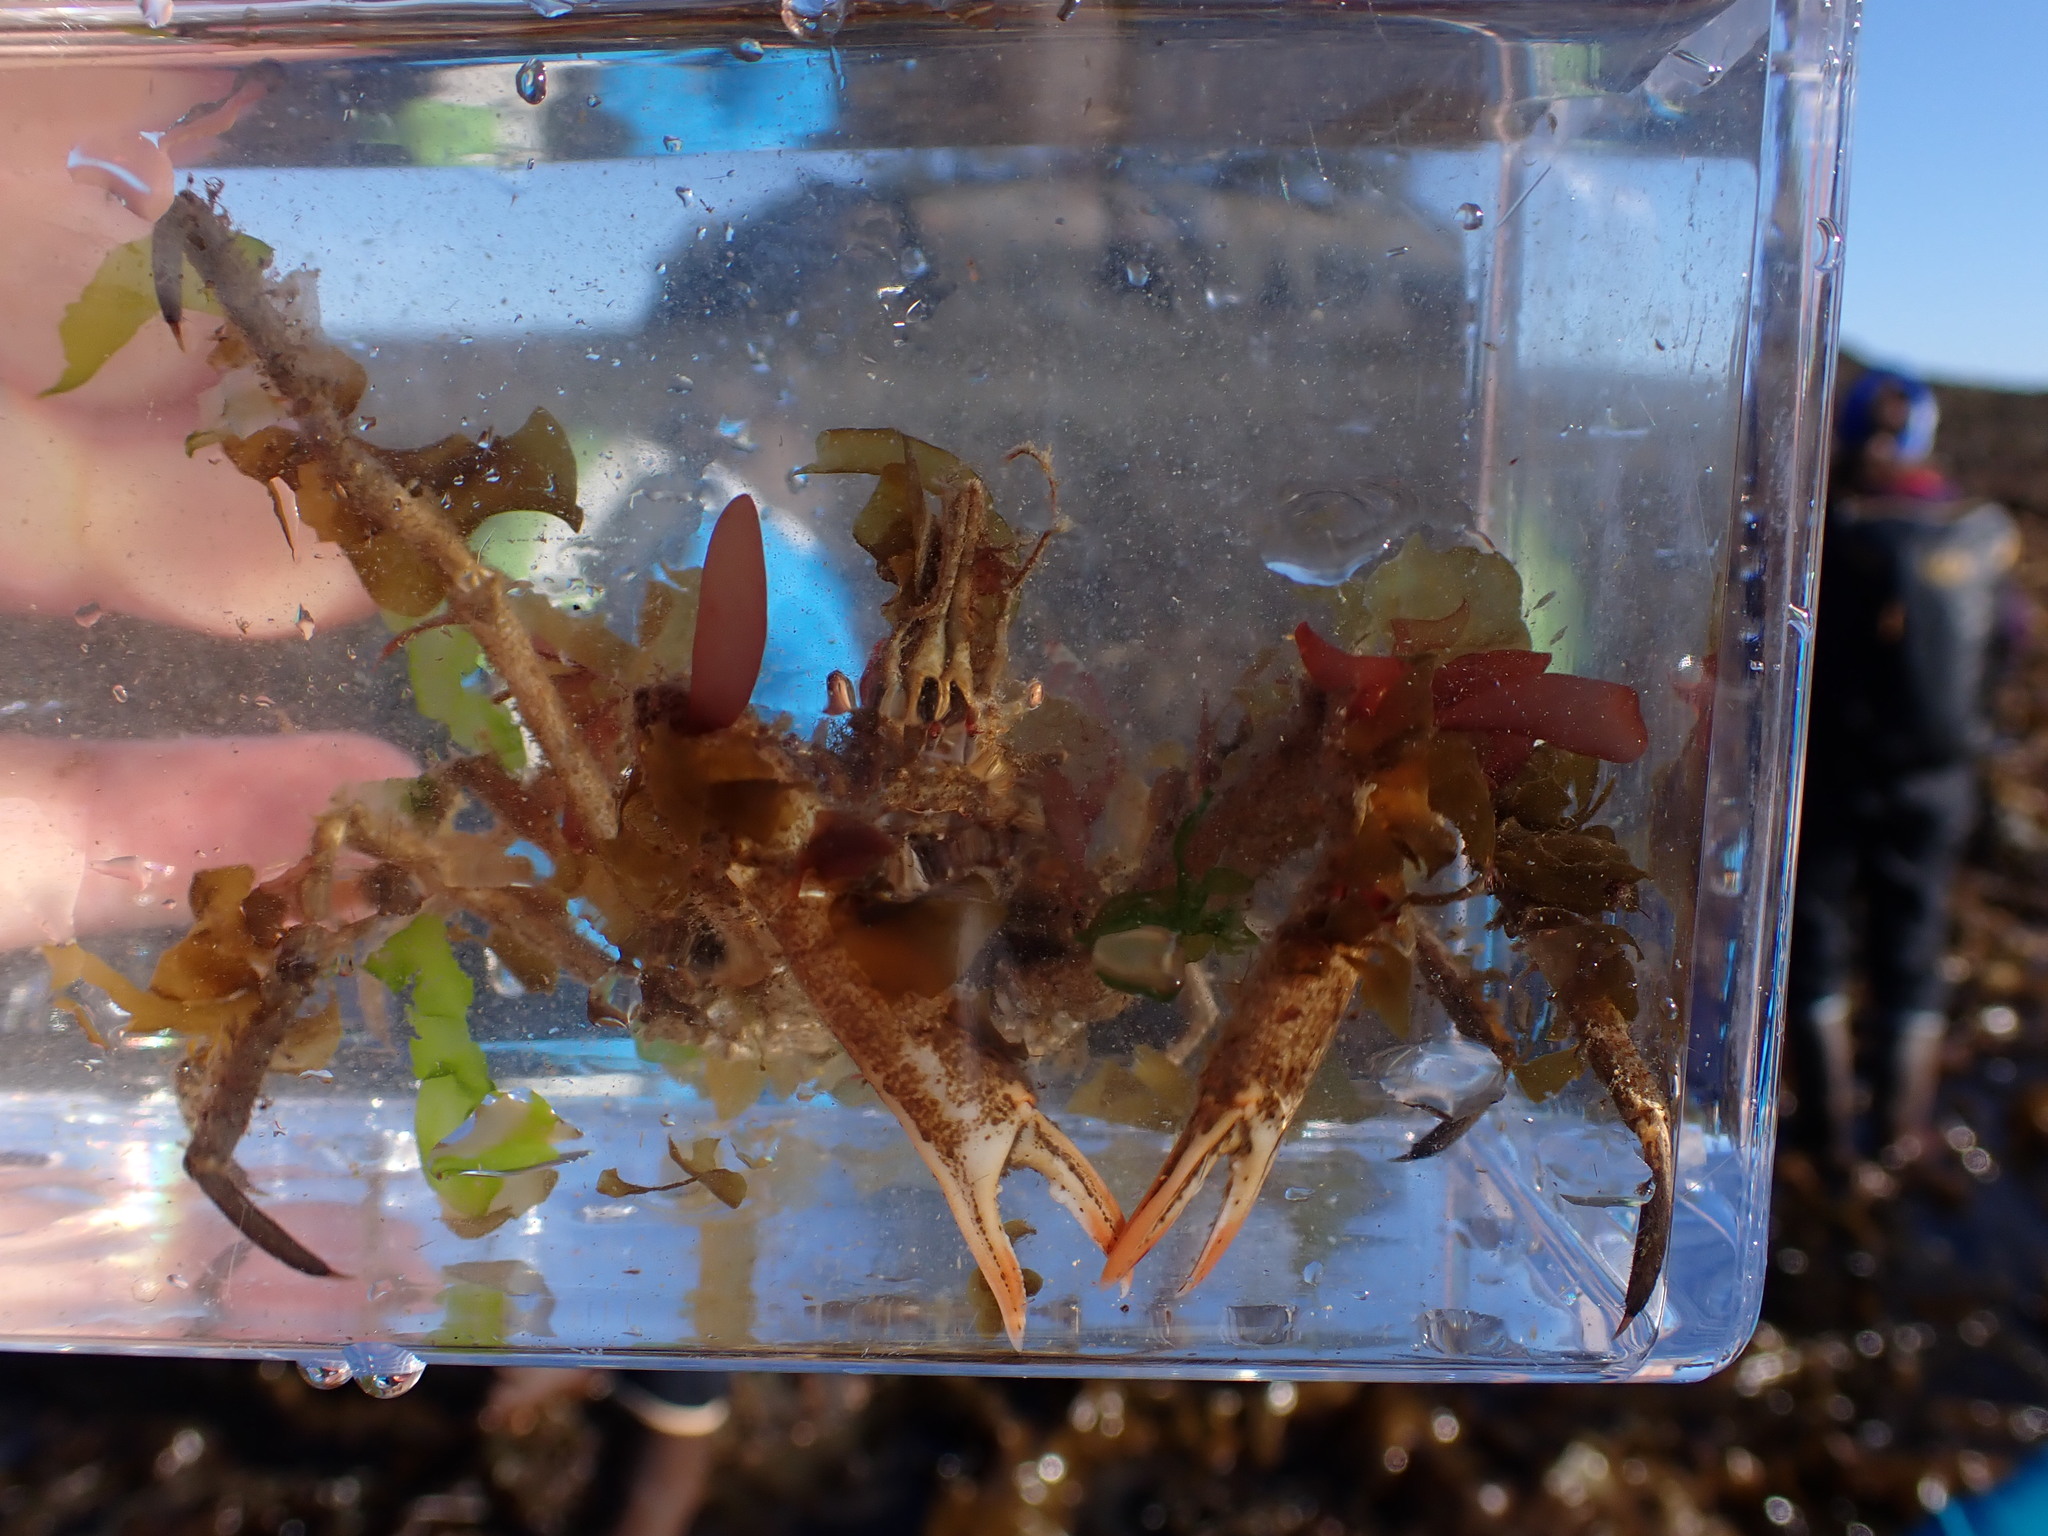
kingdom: Animalia
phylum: Arthropoda
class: Malacostraca
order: Decapoda
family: Oregoniidae
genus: Oregonia
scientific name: Oregonia gracilis
